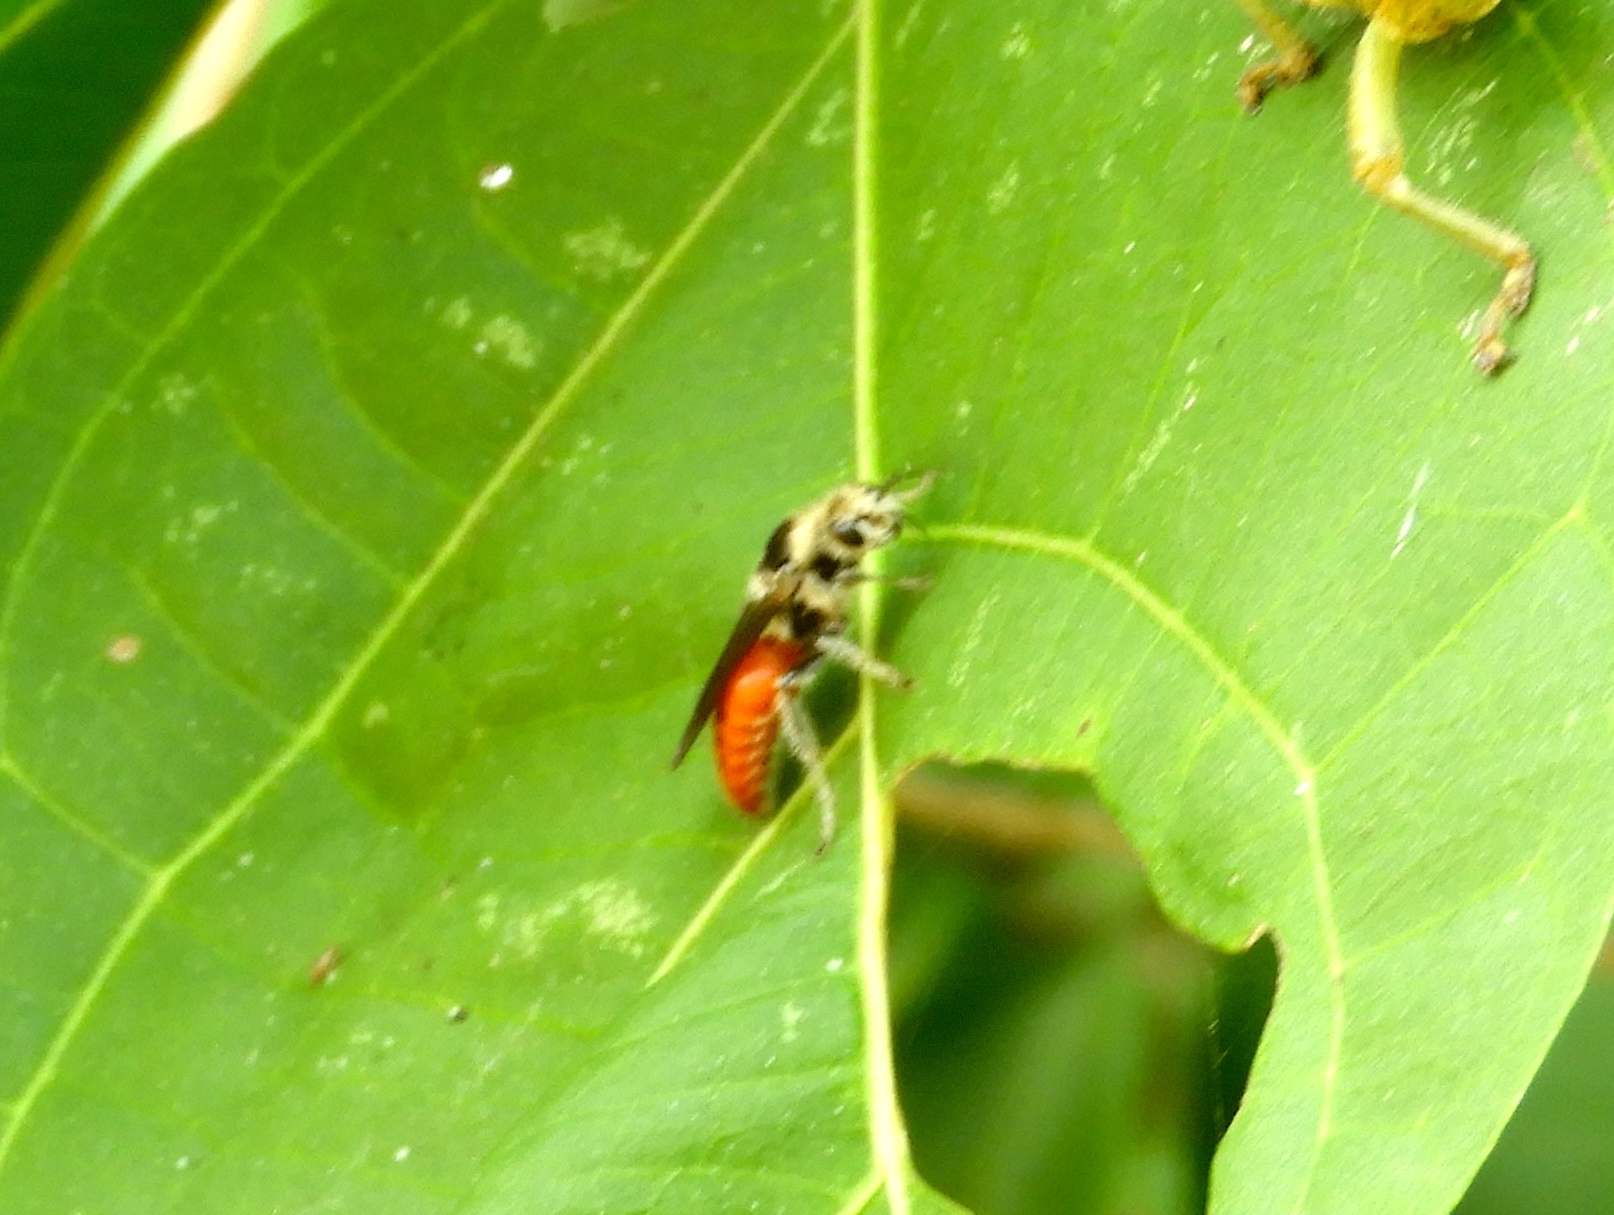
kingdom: Animalia
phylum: Arthropoda
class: Insecta
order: Hymenoptera
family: Mutillidae
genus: Timulla
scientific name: Timulla
